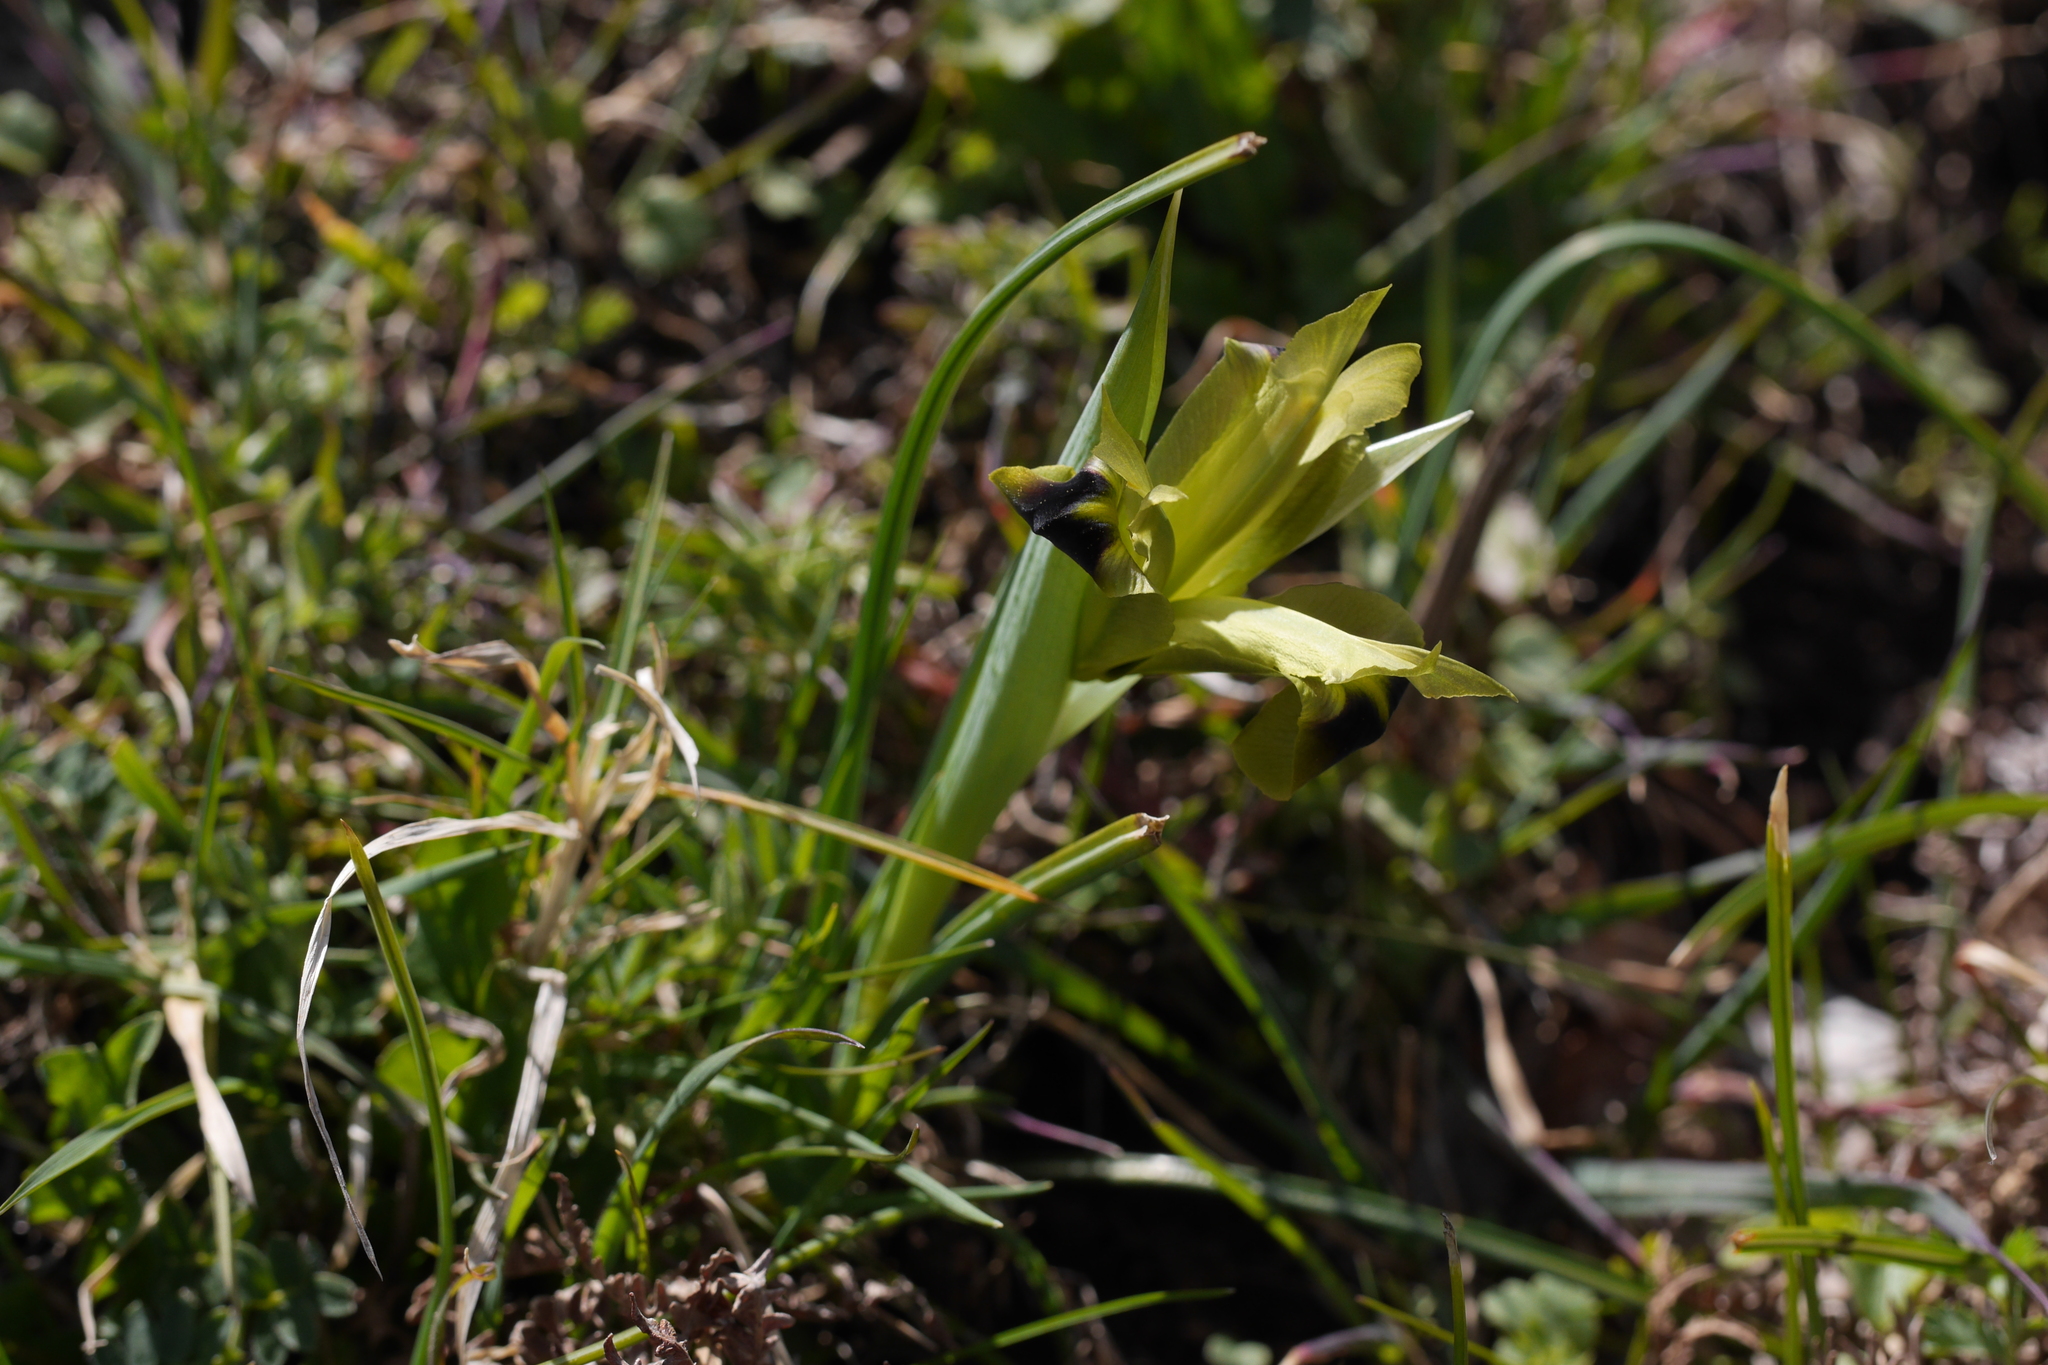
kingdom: Plantae
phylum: Tracheophyta
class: Liliopsida
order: Asparagales
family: Iridaceae
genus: Iris
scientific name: Iris tuberosa
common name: Snake's-head iris
